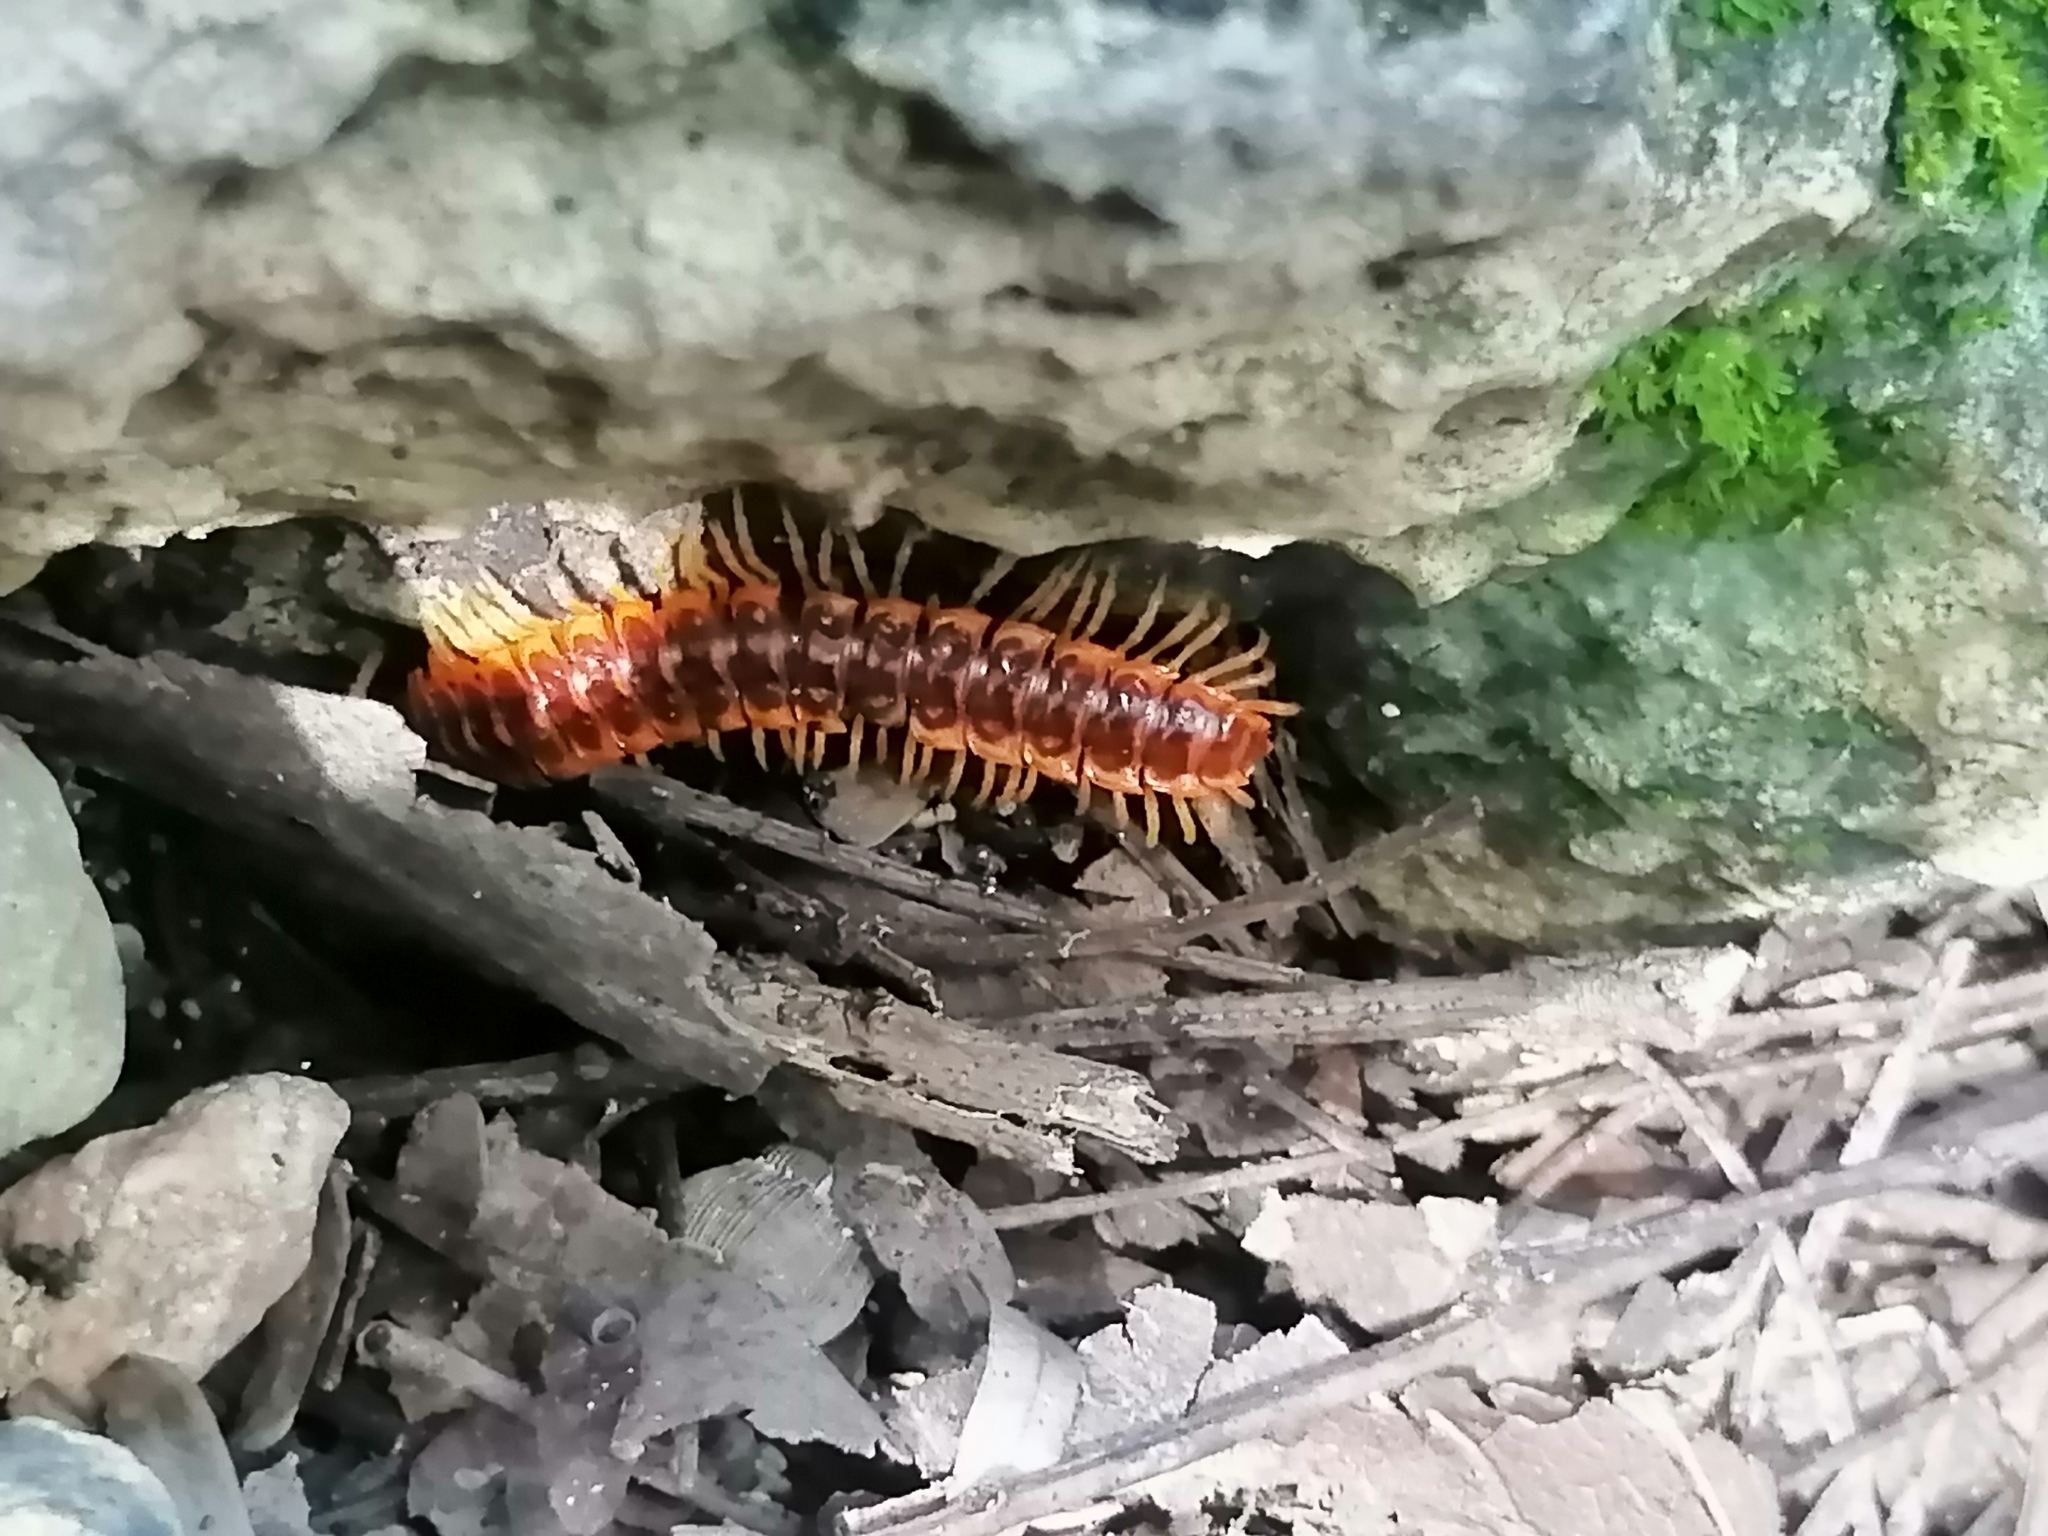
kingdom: Animalia
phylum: Arthropoda
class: Diplopoda
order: Polydesmida
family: Rhachodesmidae
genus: Aceratophallus
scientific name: Aceratophallus maya
